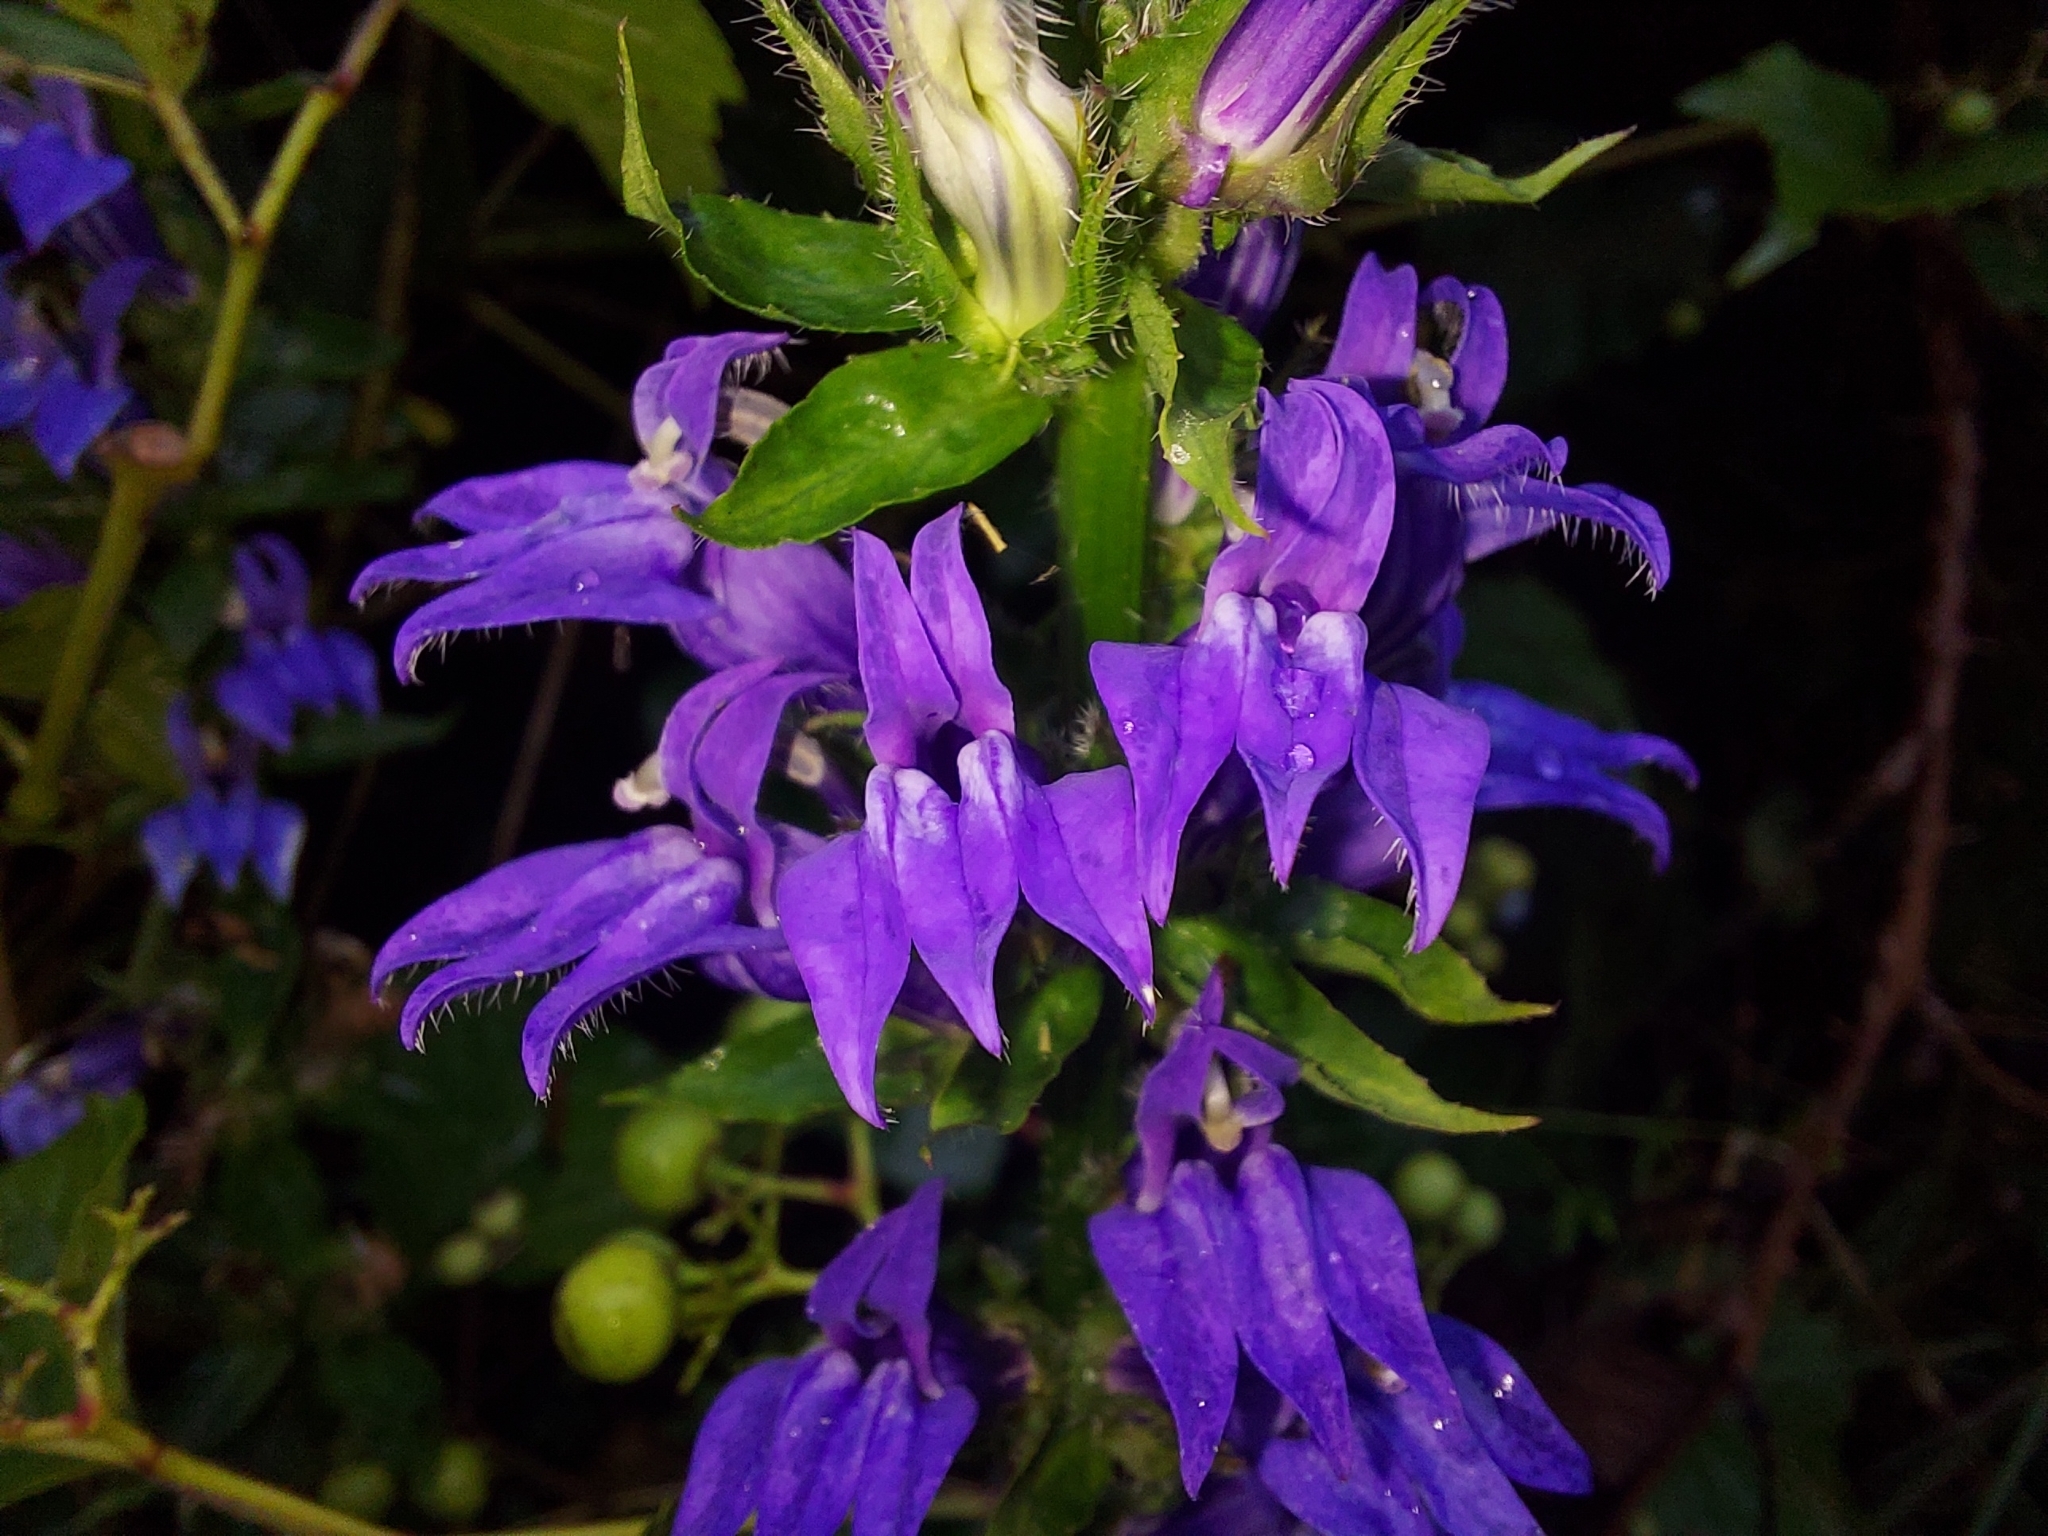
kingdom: Plantae
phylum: Tracheophyta
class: Magnoliopsida
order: Asterales
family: Campanulaceae
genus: Lobelia
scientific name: Lobelia siphilitica
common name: Great lobelia
